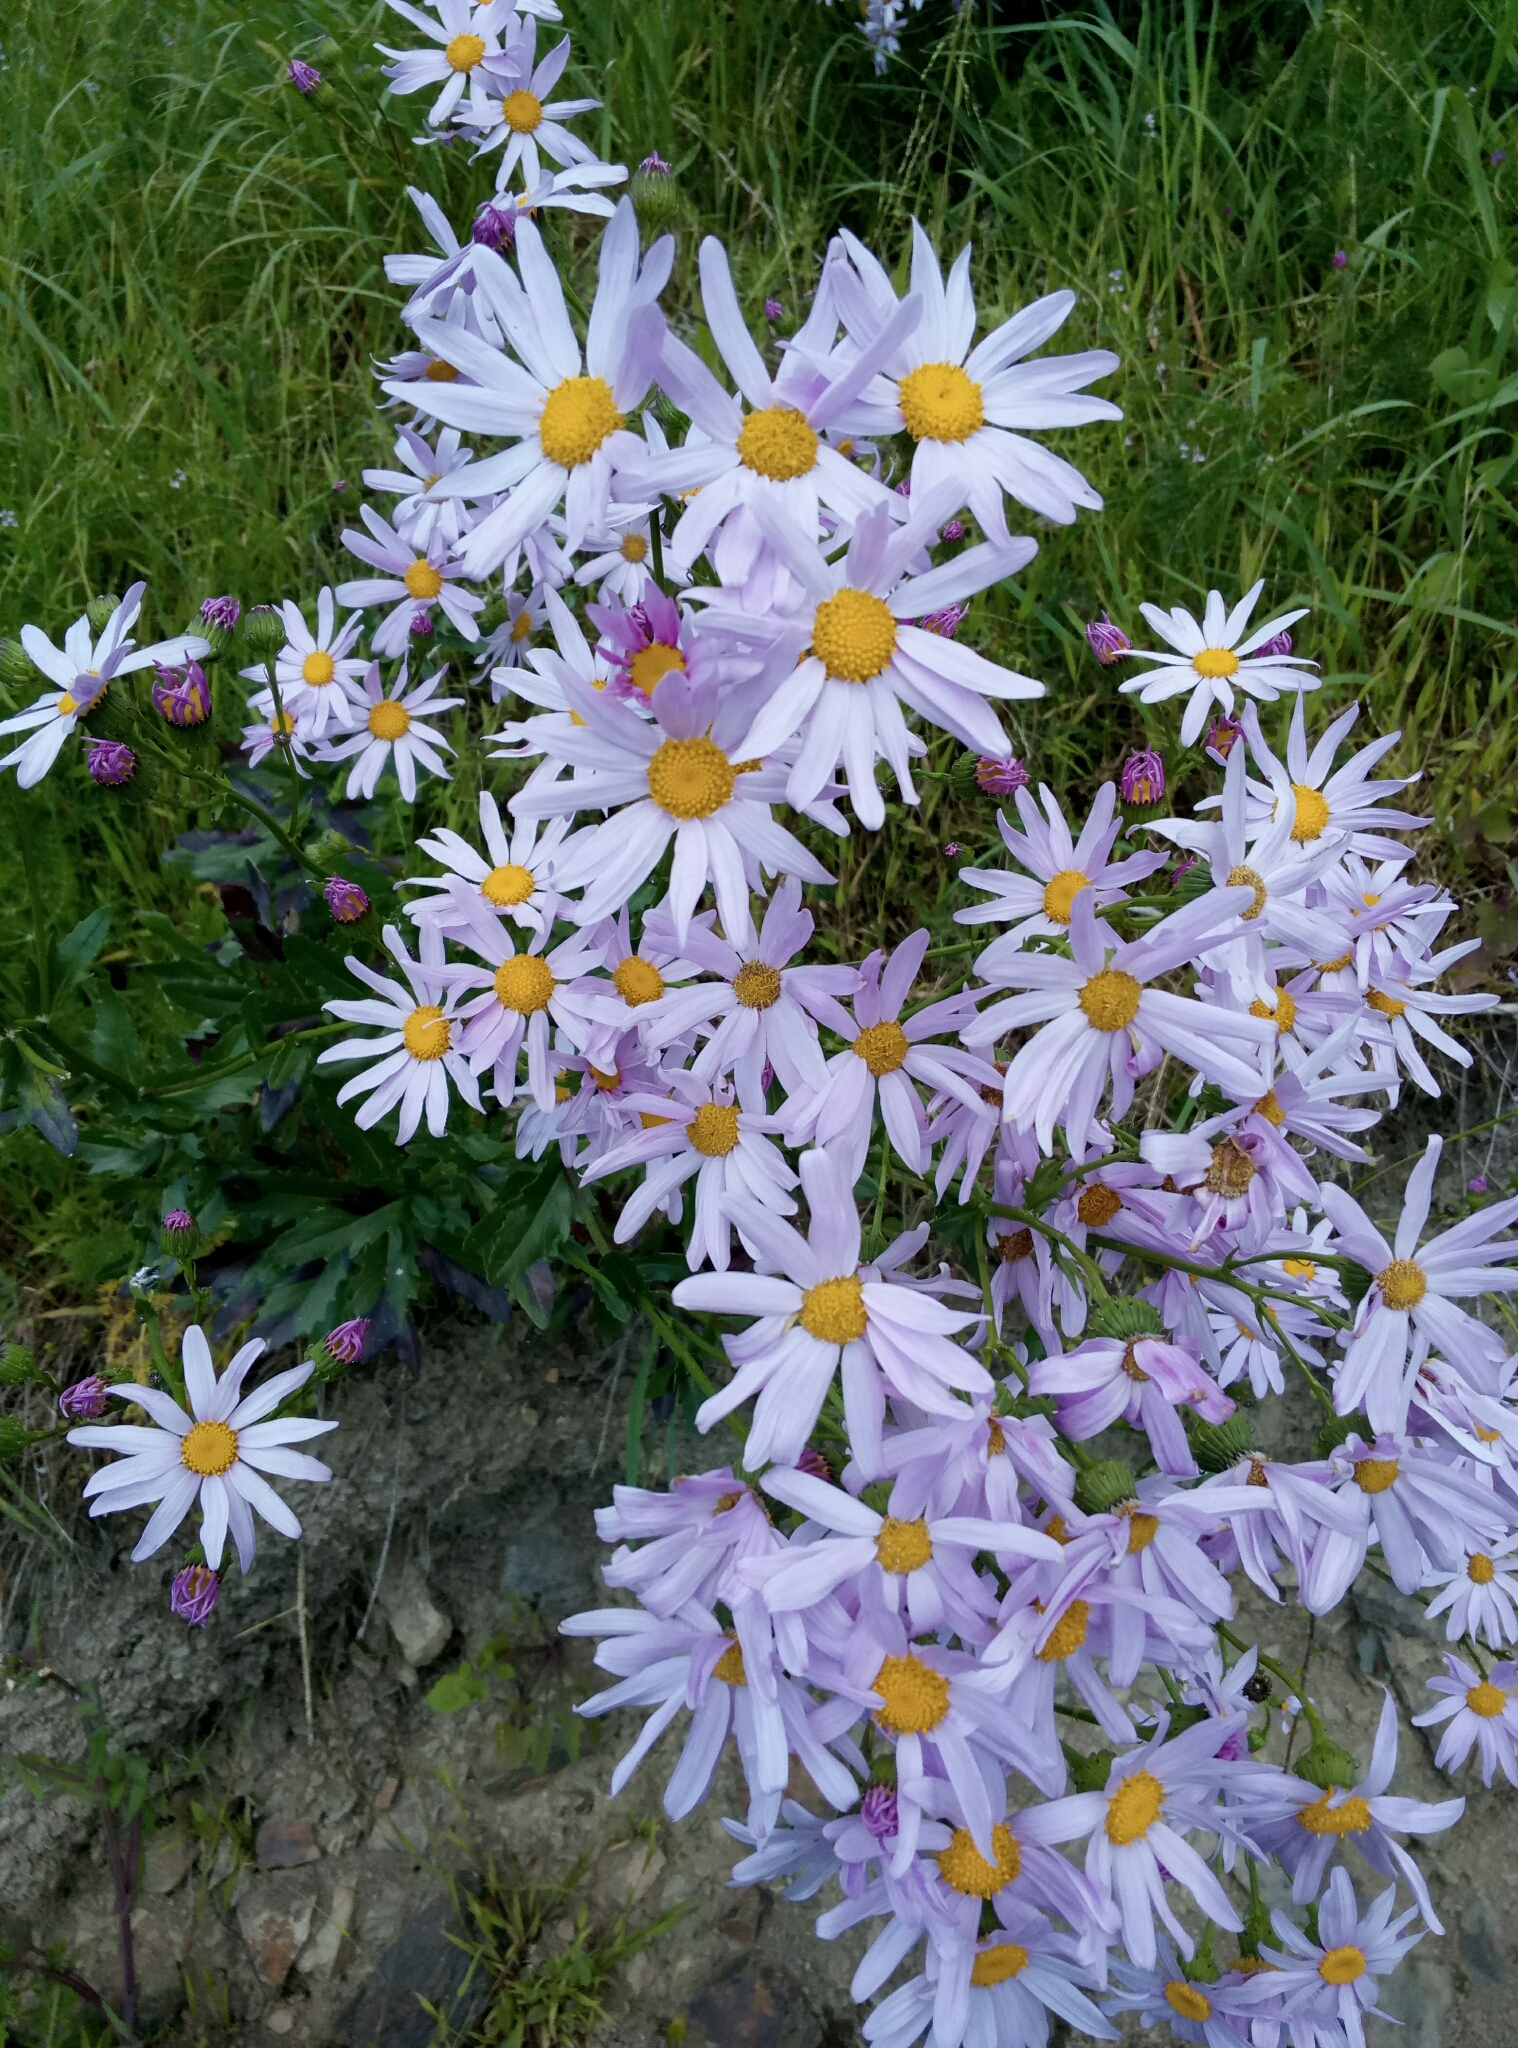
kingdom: Plantae
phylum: Tracheophyta
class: Magnoliopsida
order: Asterales
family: Asteraceae
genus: Senecio
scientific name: Senecio glastifolius
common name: Woad-leaved ragwort
